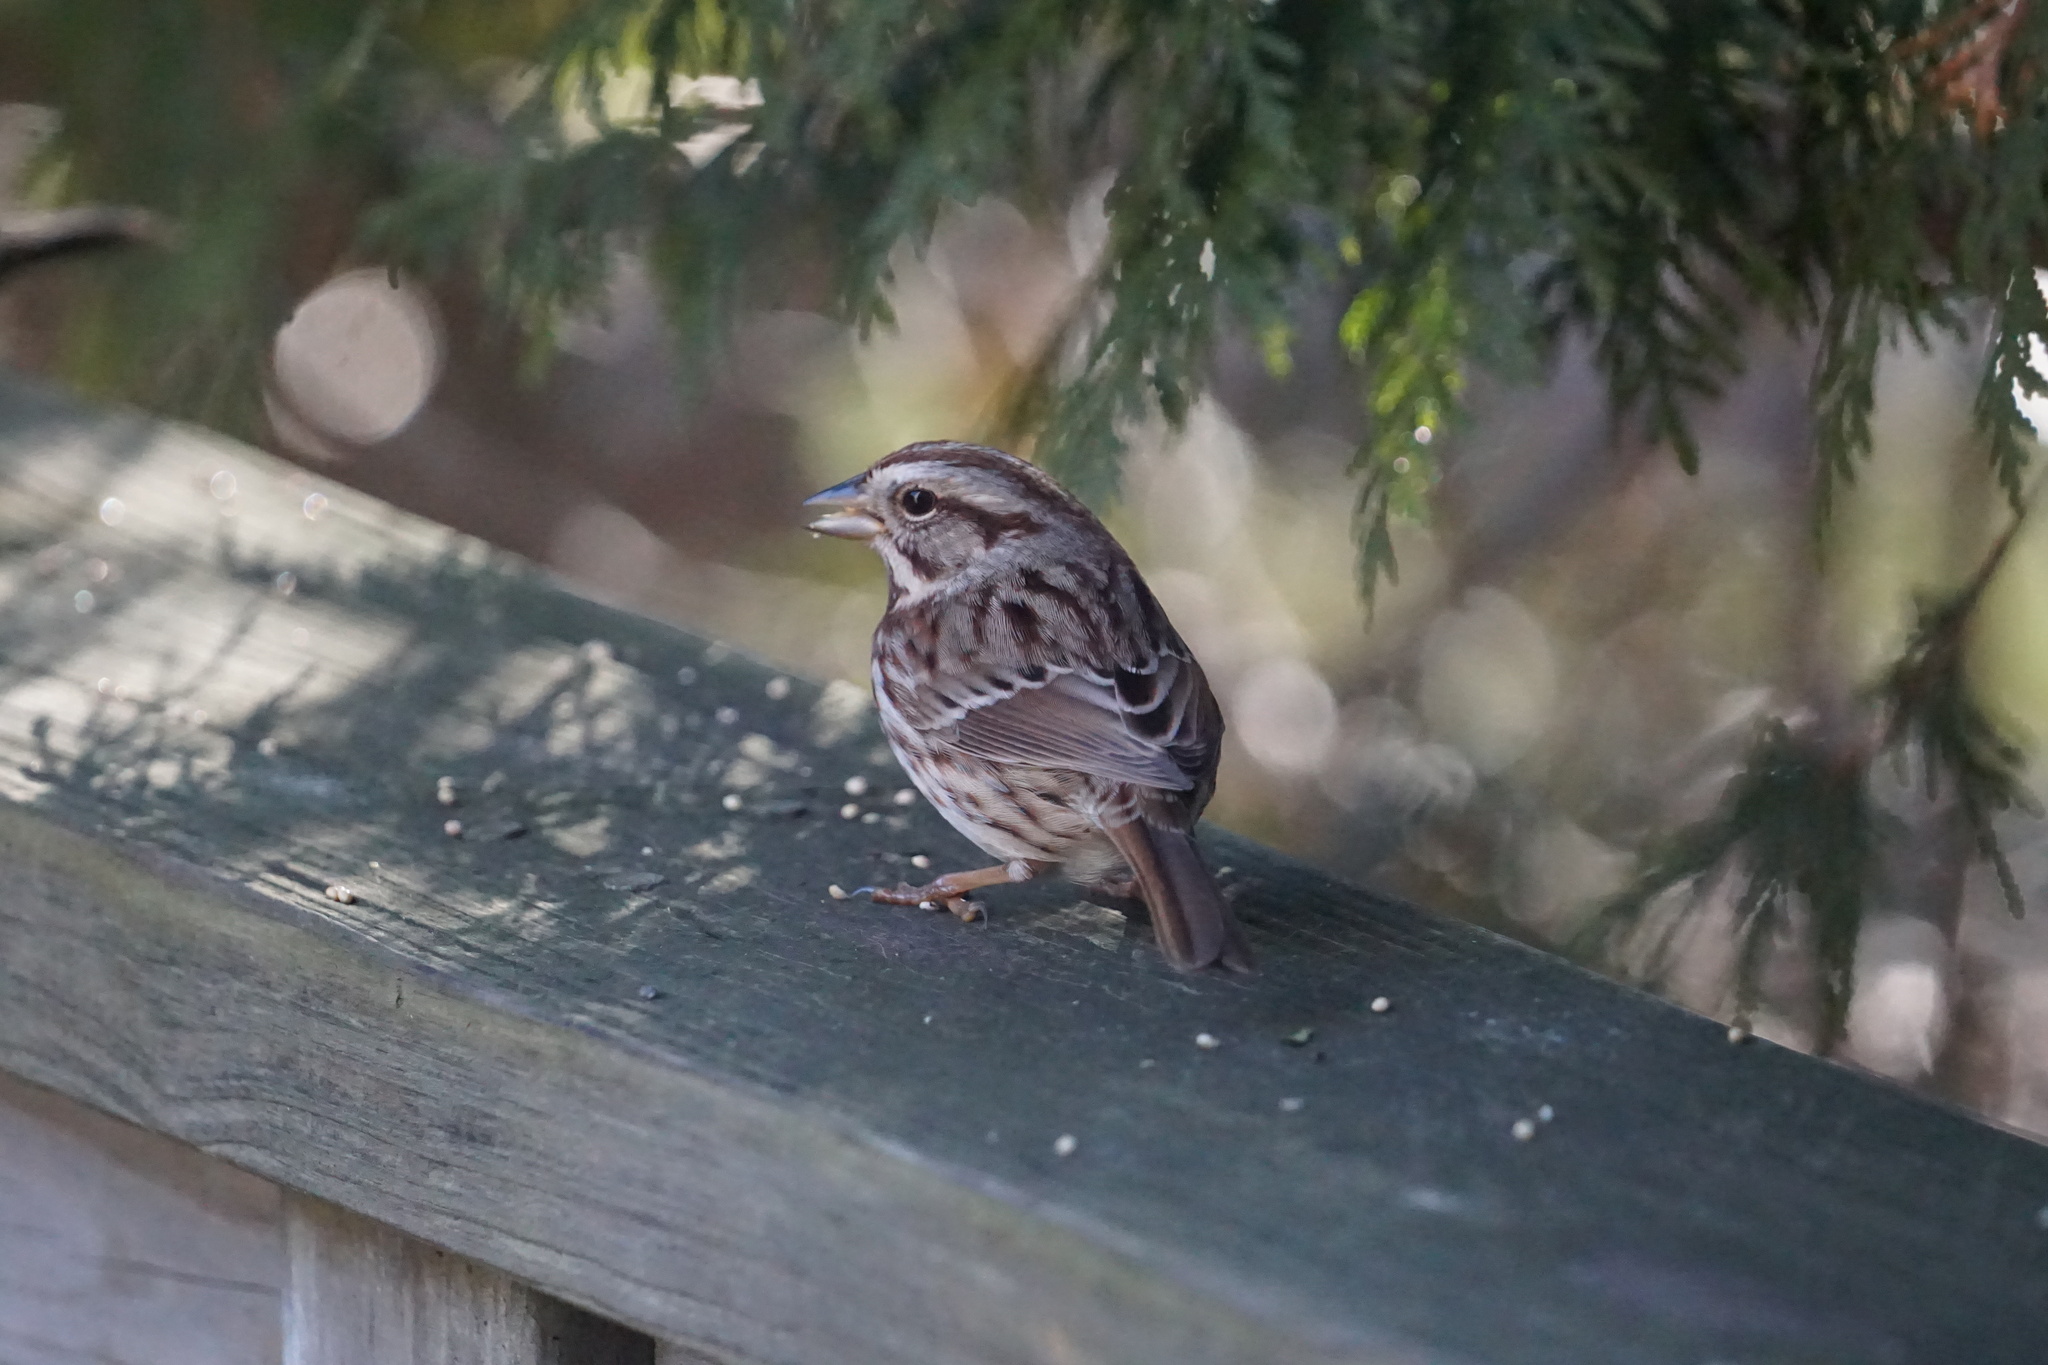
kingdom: Animalia
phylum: Chordata
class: Aves
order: Passeriformes
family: Passerellidae
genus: Melospiza
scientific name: Melospiza melodia
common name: Song sparrow
